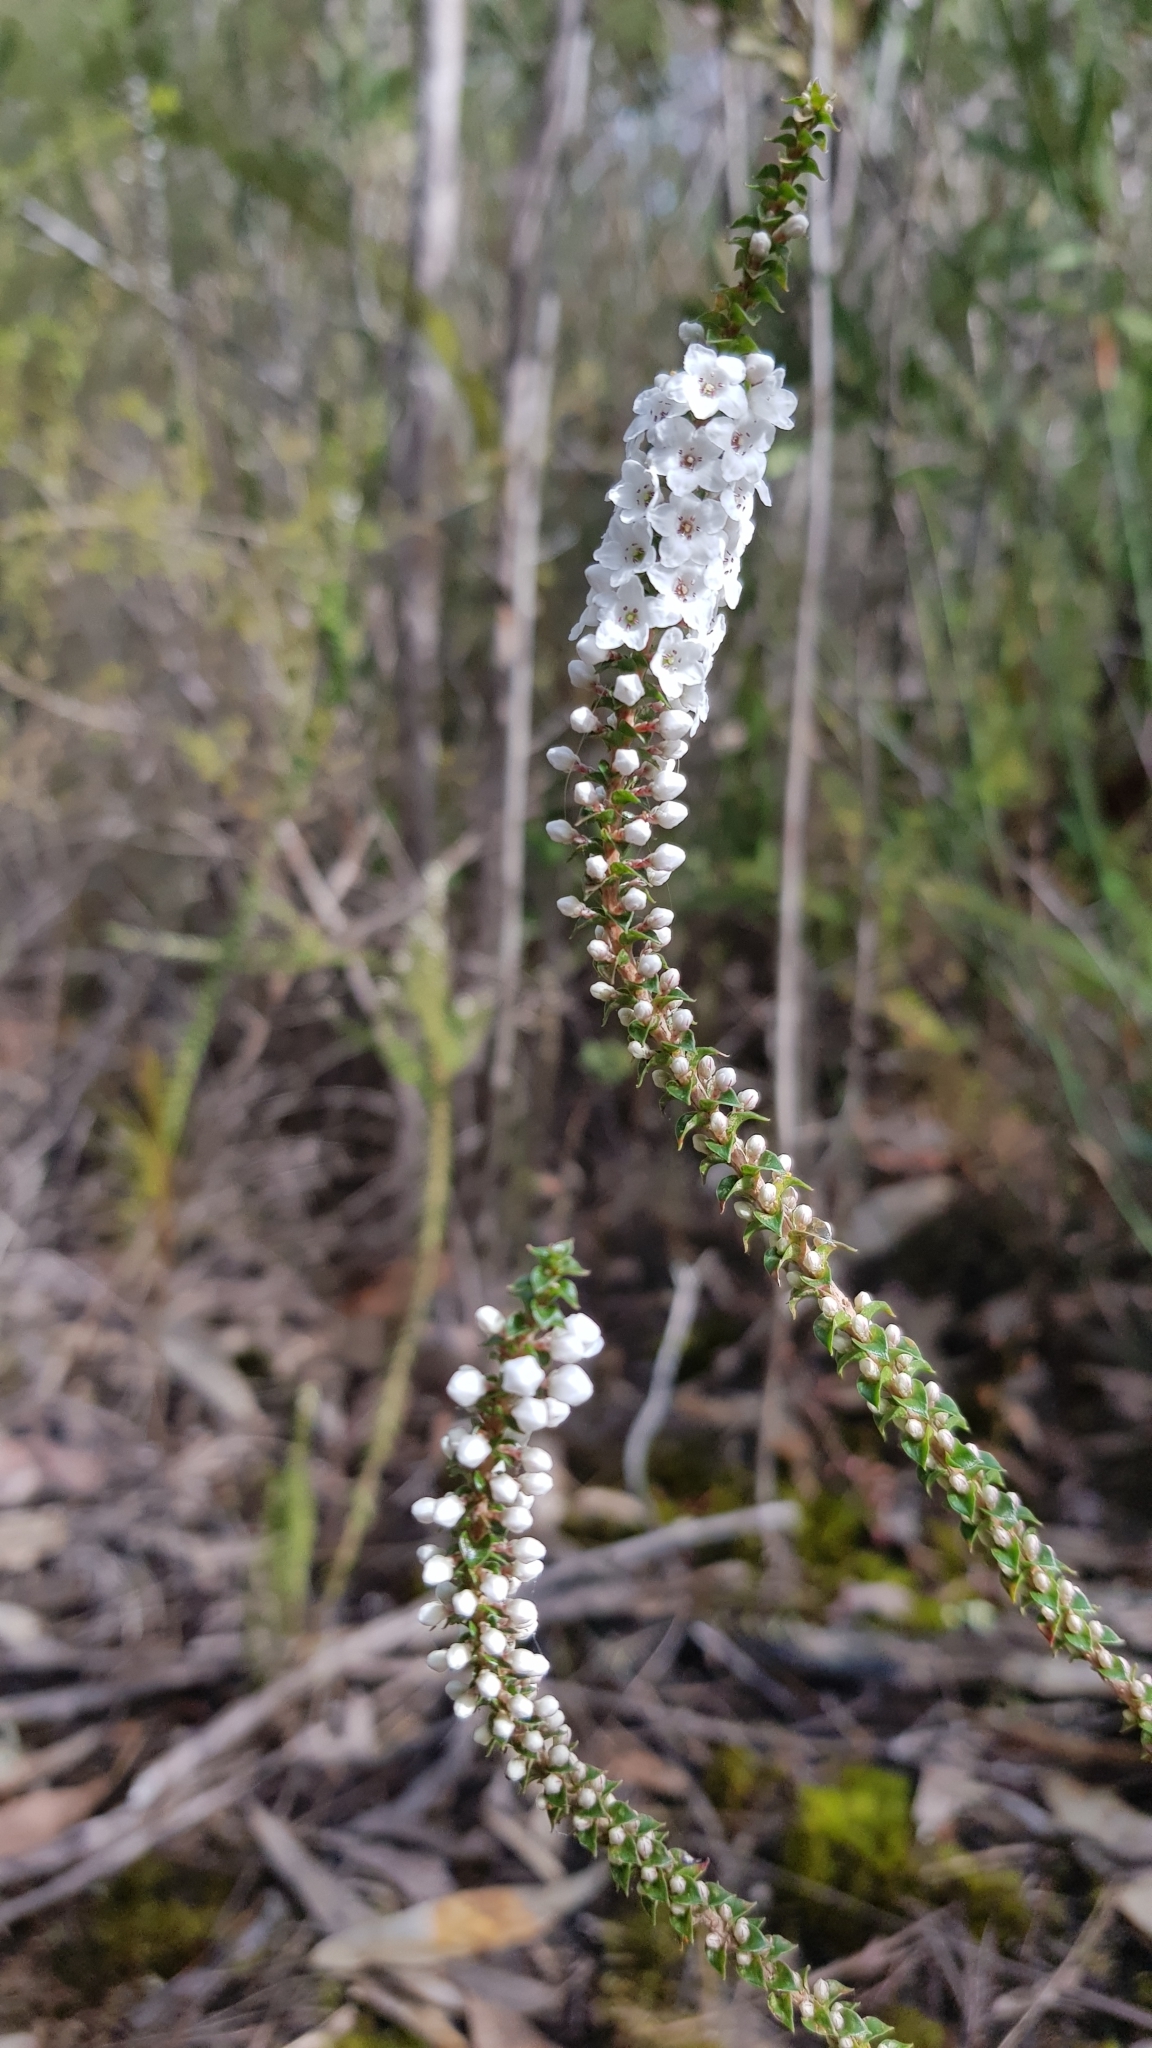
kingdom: Plantae
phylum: Tracheophyta
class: Magnoliopsida
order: Ericales
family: Ericaceae
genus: Epacris
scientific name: Epacris microphylla
